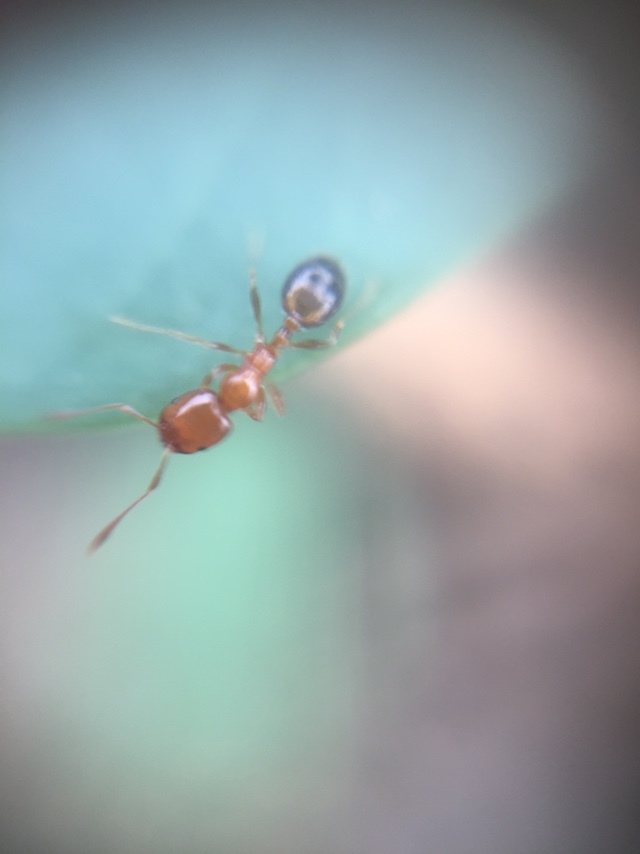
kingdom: Animalia
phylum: Arthropoda
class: Insecta
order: Hymenoptera
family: Formicidae
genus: Monomorium
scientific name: Monomorium destructor
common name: Destructive trailing ant
